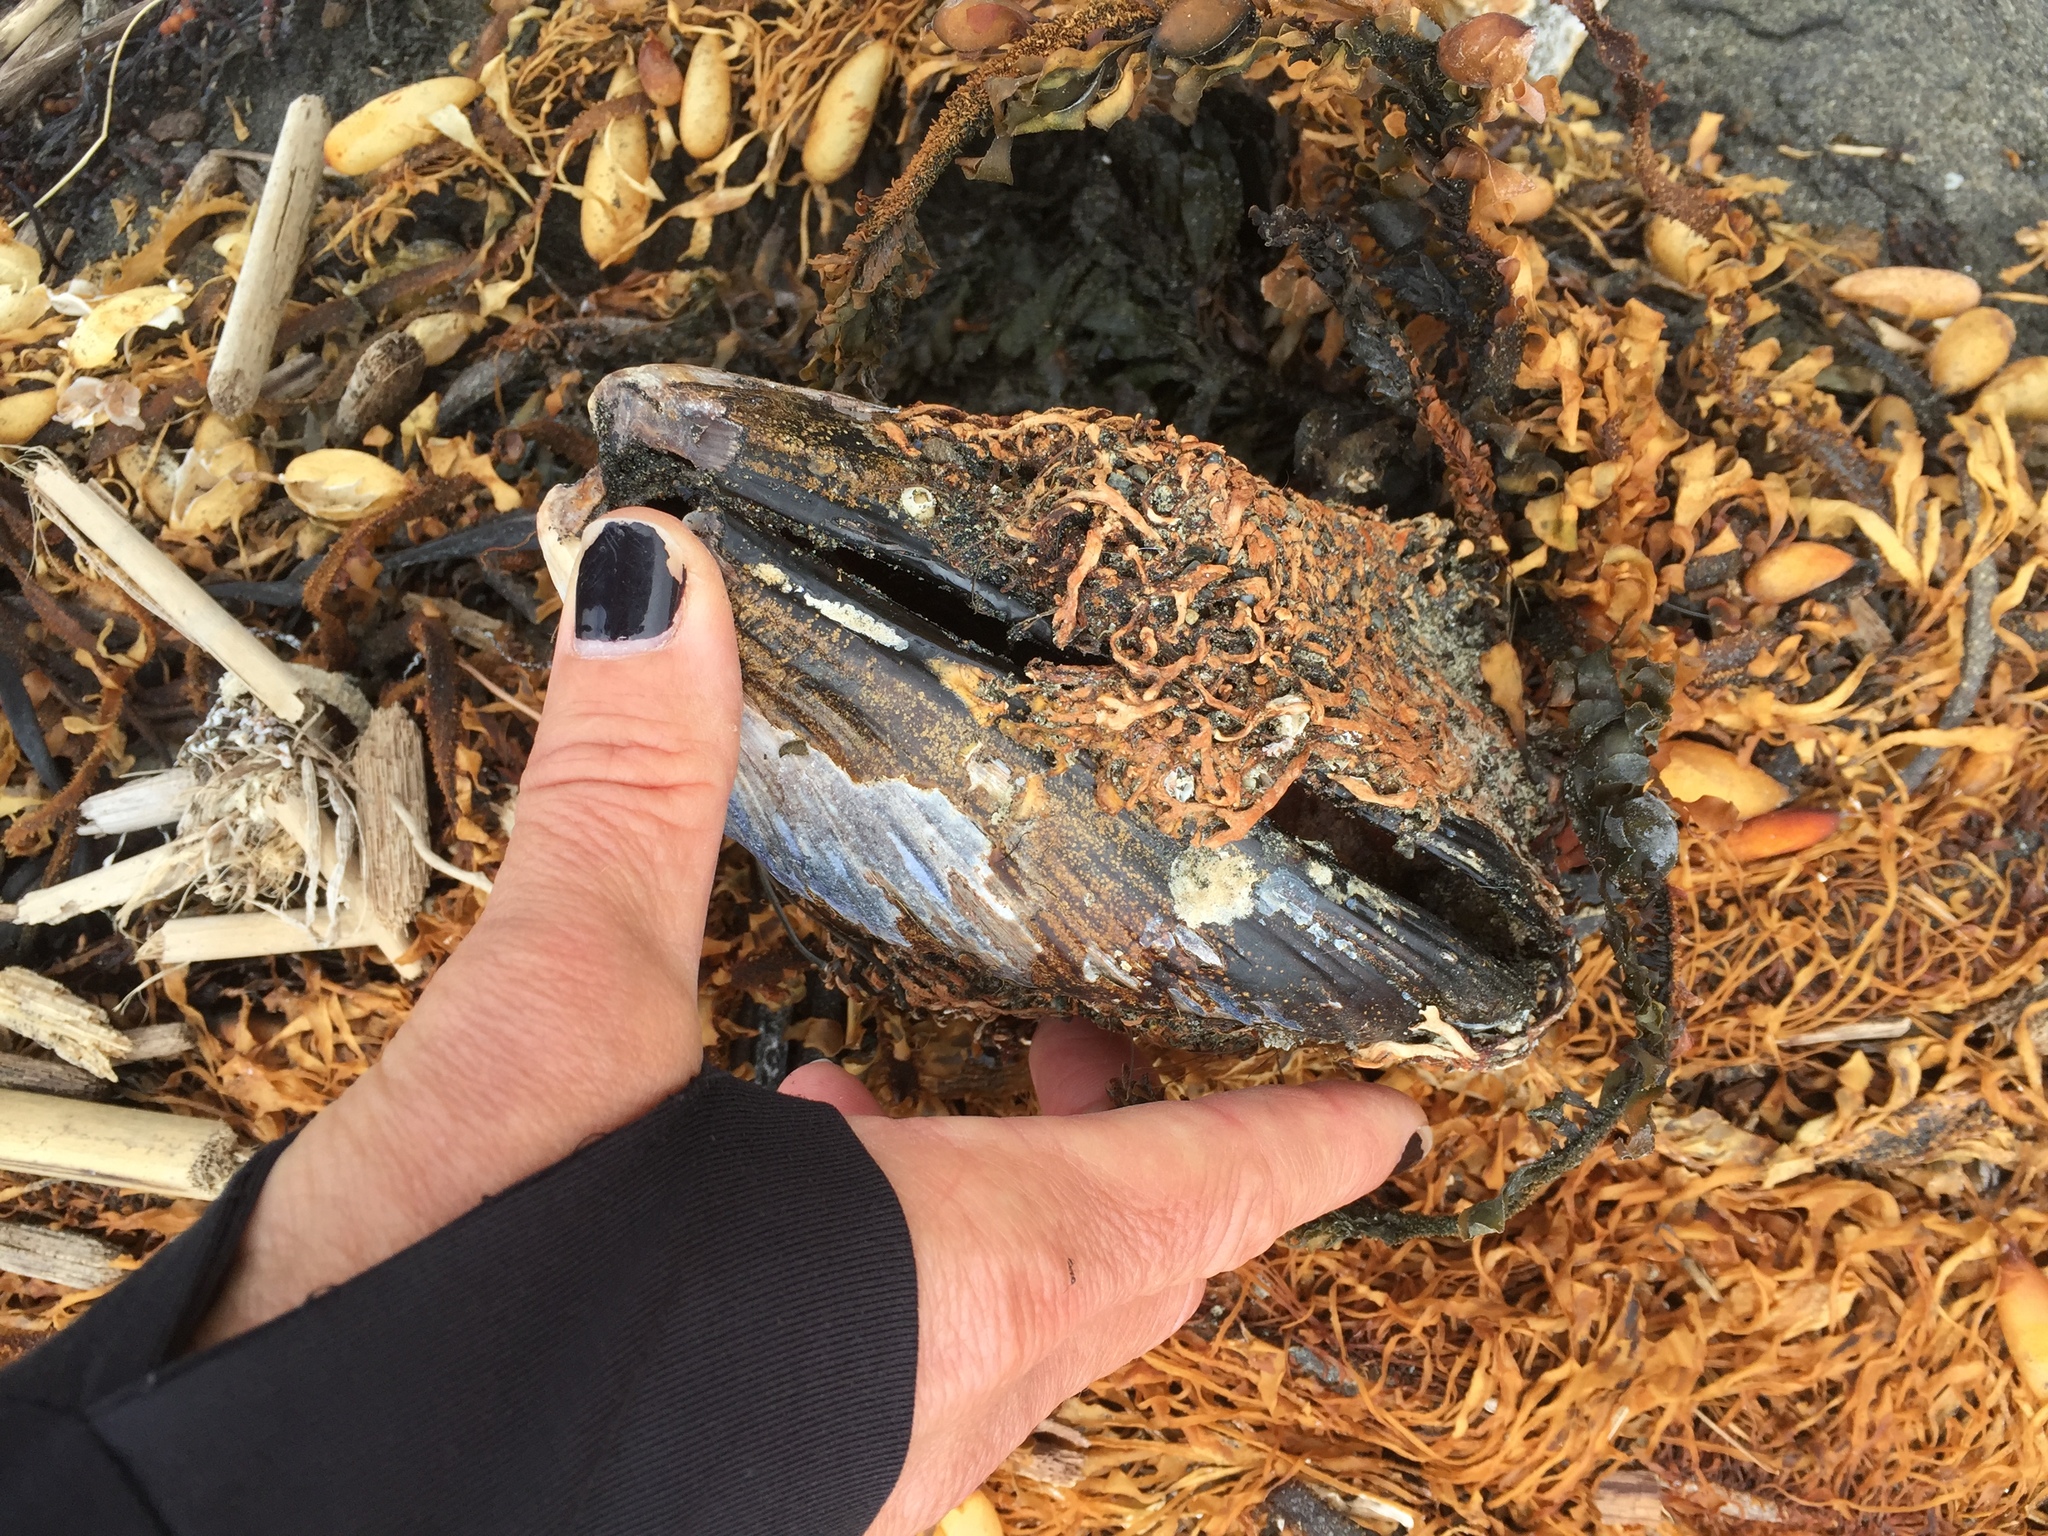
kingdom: Animalia
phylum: Mollusca
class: Bivalvia
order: Mytilida
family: Mytilidae
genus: Mytilus
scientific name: Mytilus californianus
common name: California mussel
